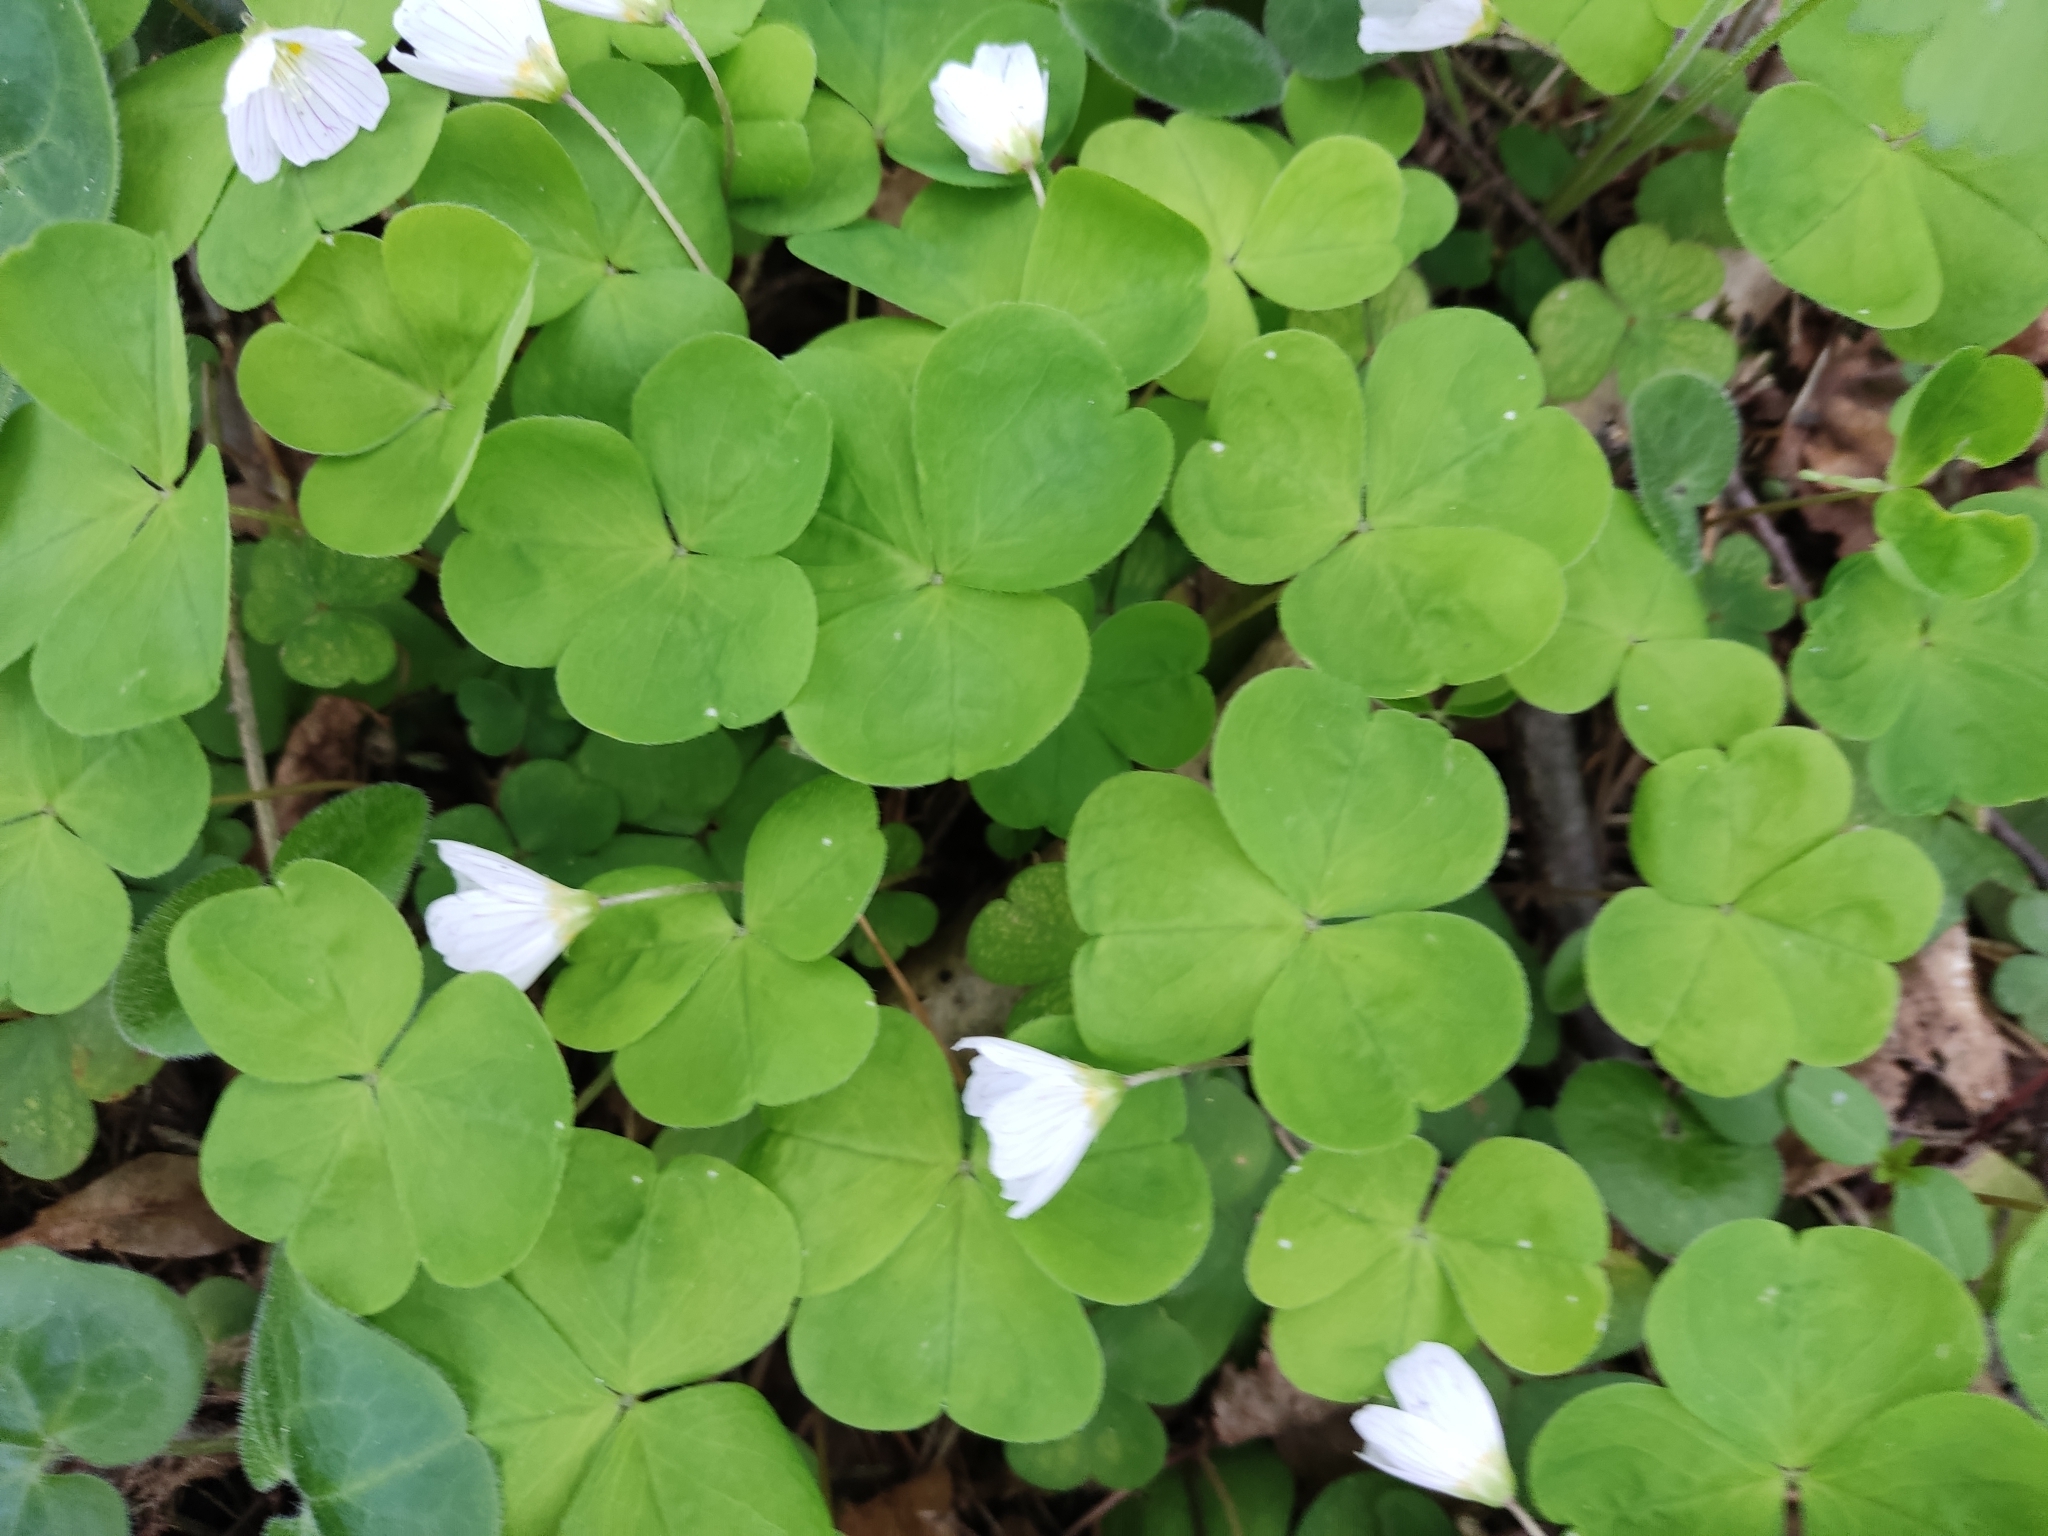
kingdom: Plantae
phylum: Tracheophyta
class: Magnoliopsida
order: Oxalidales
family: Oxalidaceae
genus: Oxalis
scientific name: Oxalis acetosella
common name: Wood-sorrel
